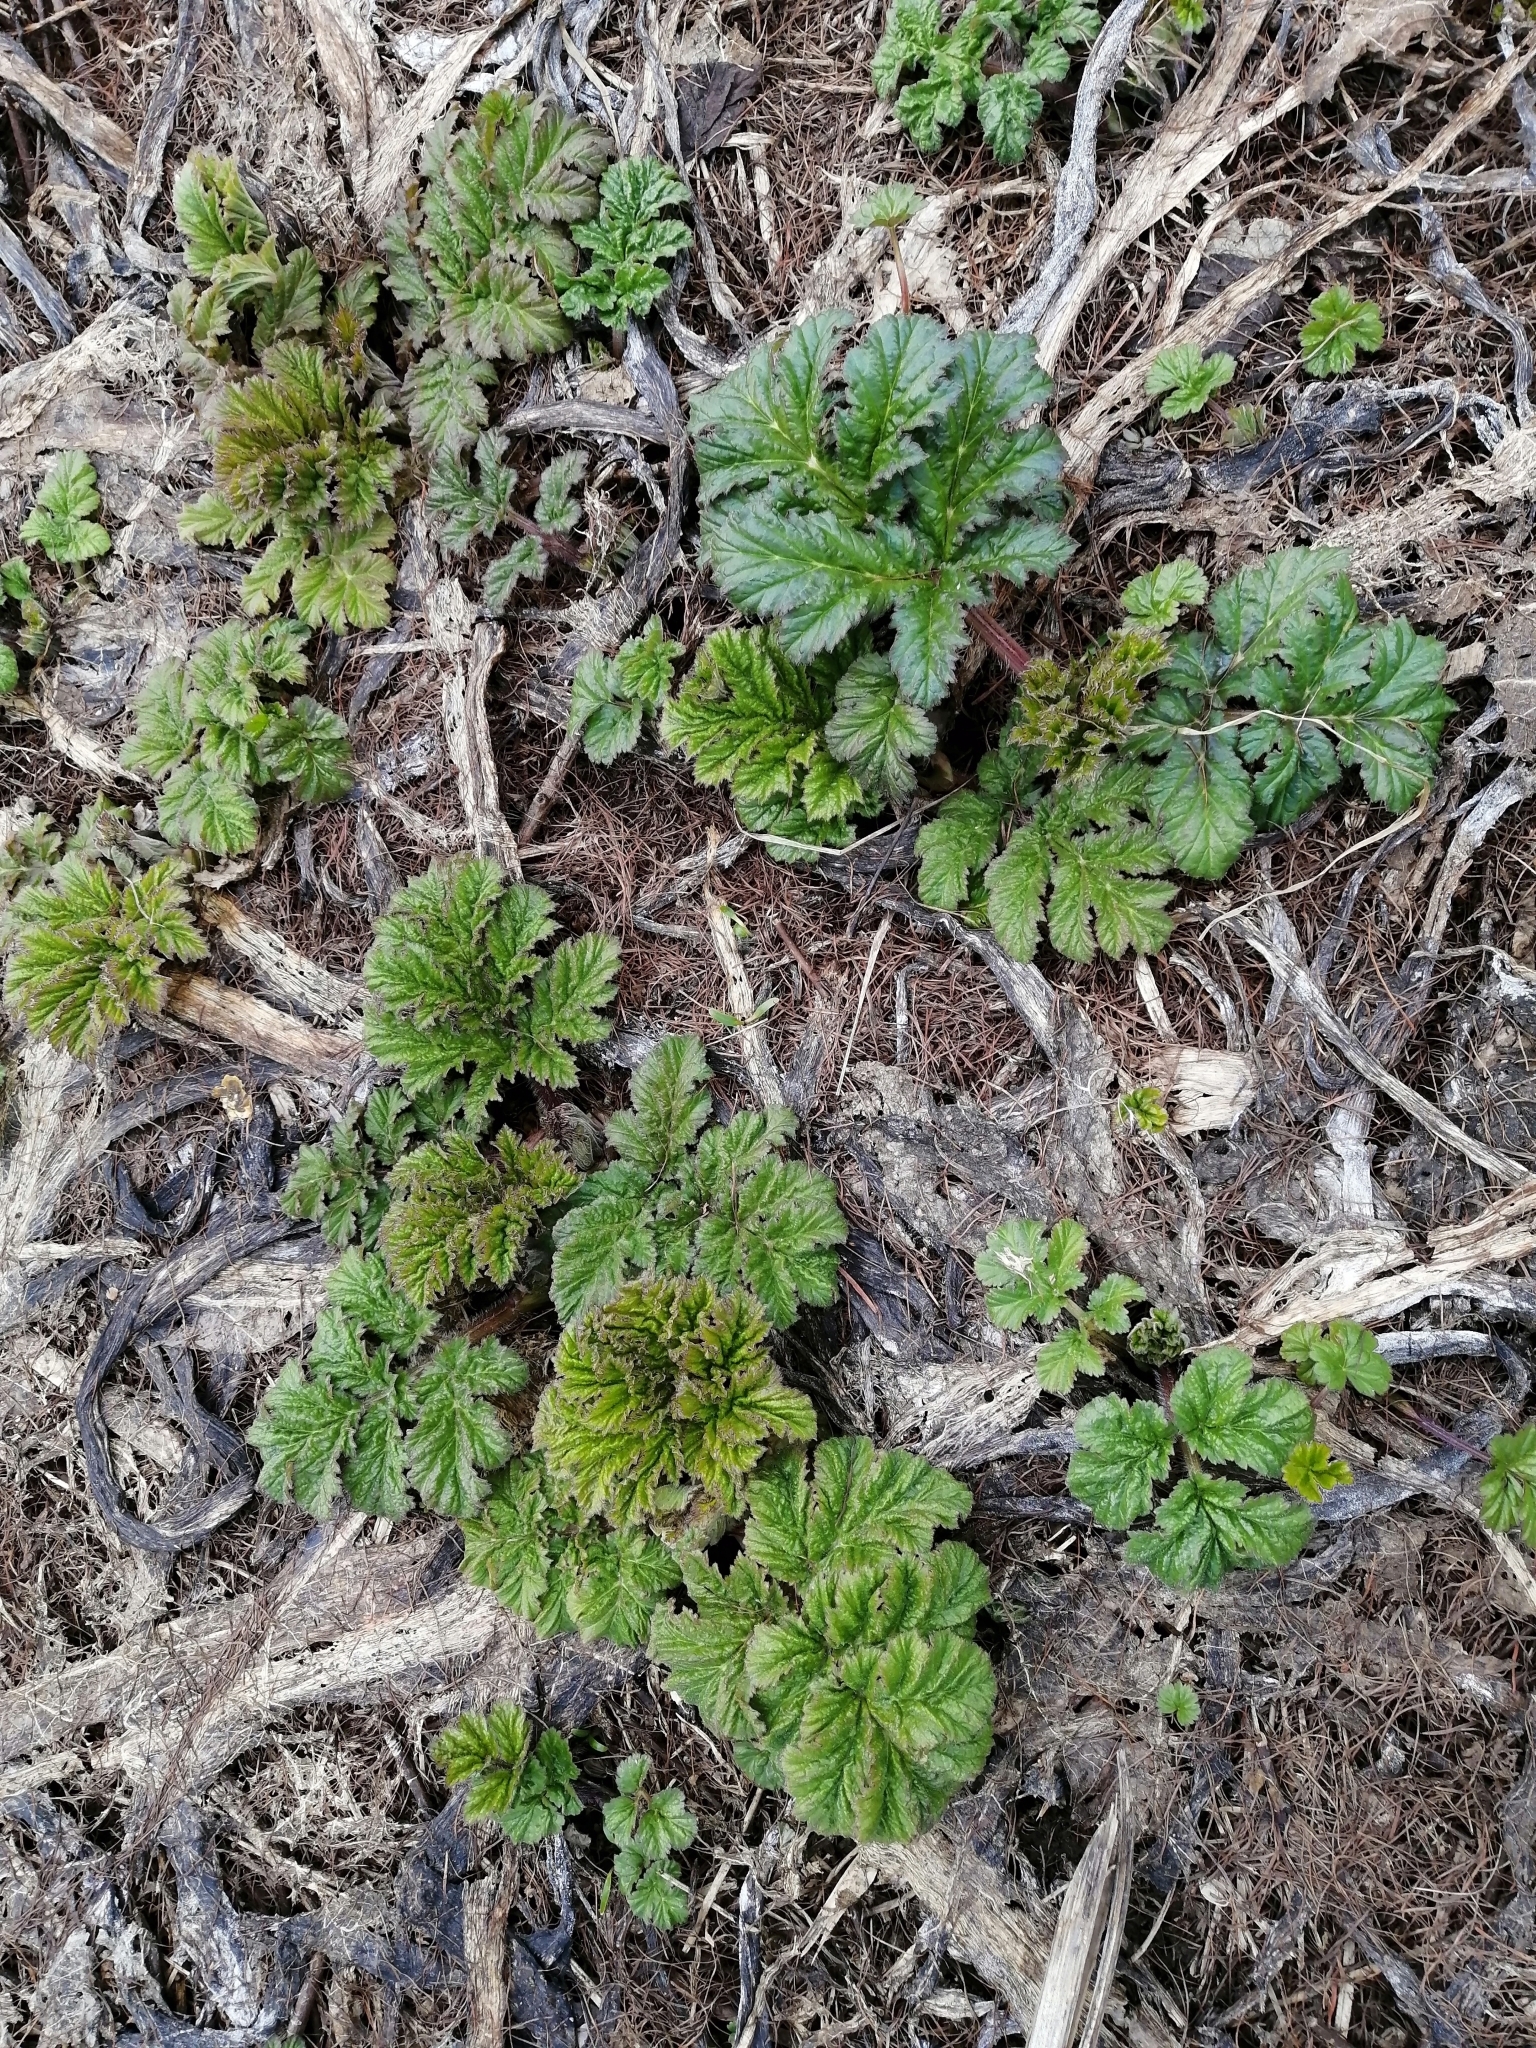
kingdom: Plantae
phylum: Tracheophyta
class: Magnoliopsida
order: Apiales
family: Apiaceae
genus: Heracleum
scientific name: Heracleum sosnowskyi
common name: Sosnowsky's hogweed
